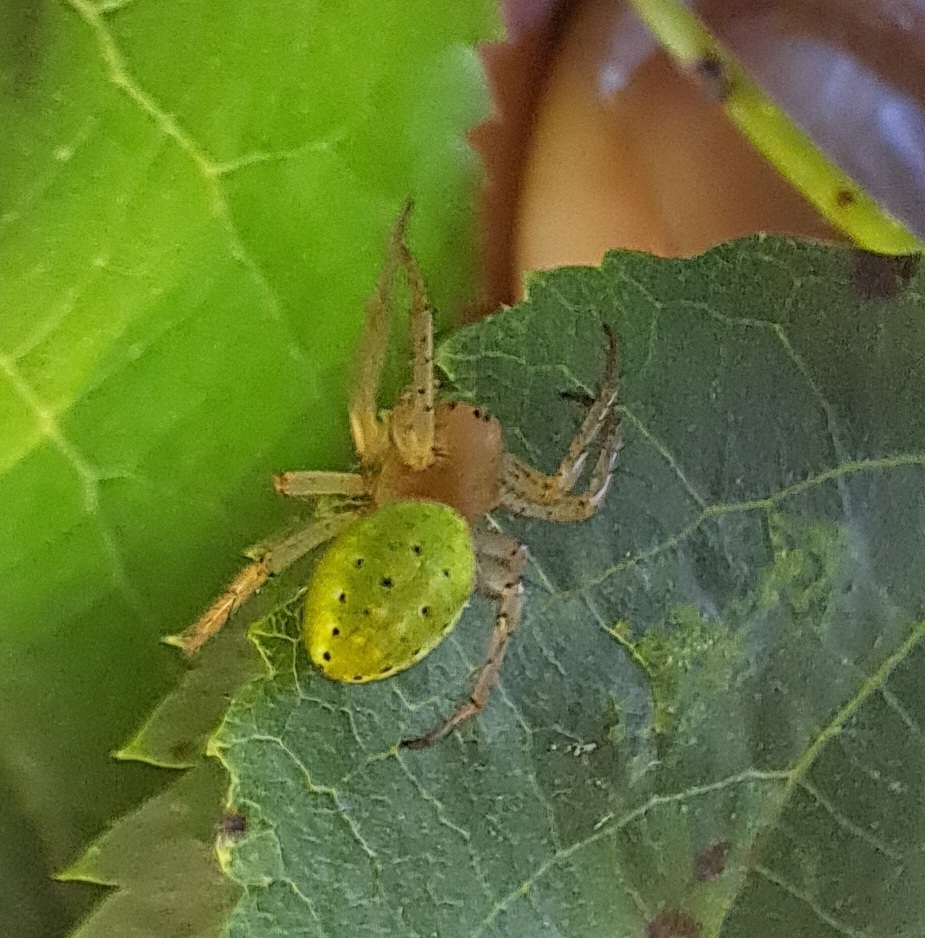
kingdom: Animalia
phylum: Arthropoda
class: Arachnida
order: Araneae
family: Araneidae
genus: Araniella
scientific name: Araniella
